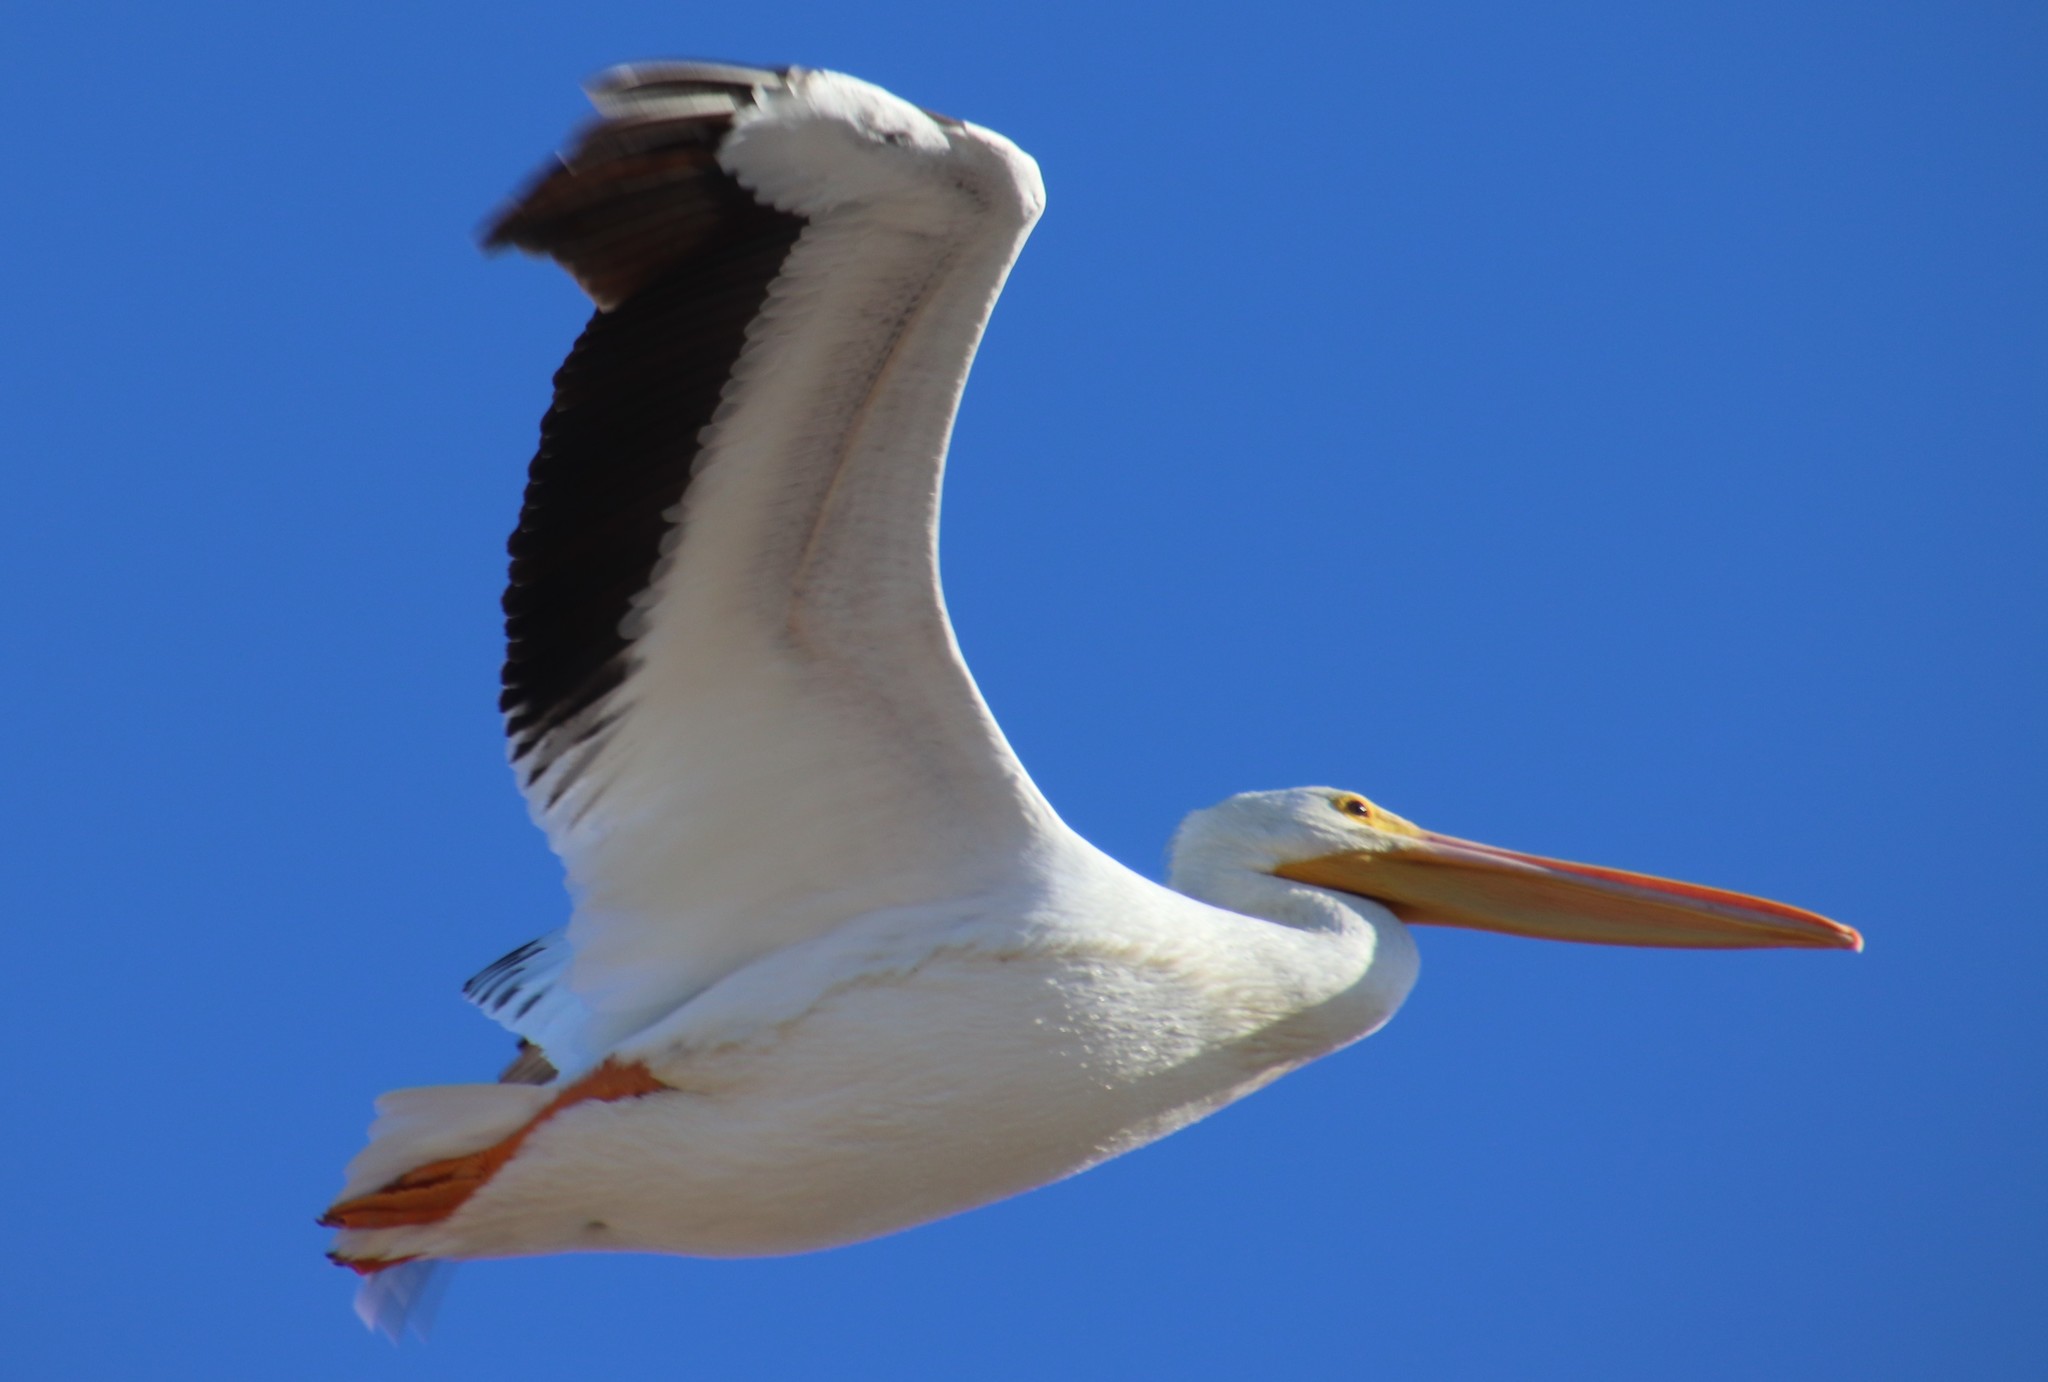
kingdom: Animalia
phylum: Chordata
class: Aves
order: Pelecaniformes
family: Pelecanidae
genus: Pelecanus
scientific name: Pelecanus erythrorhynchos
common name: American white pelican
